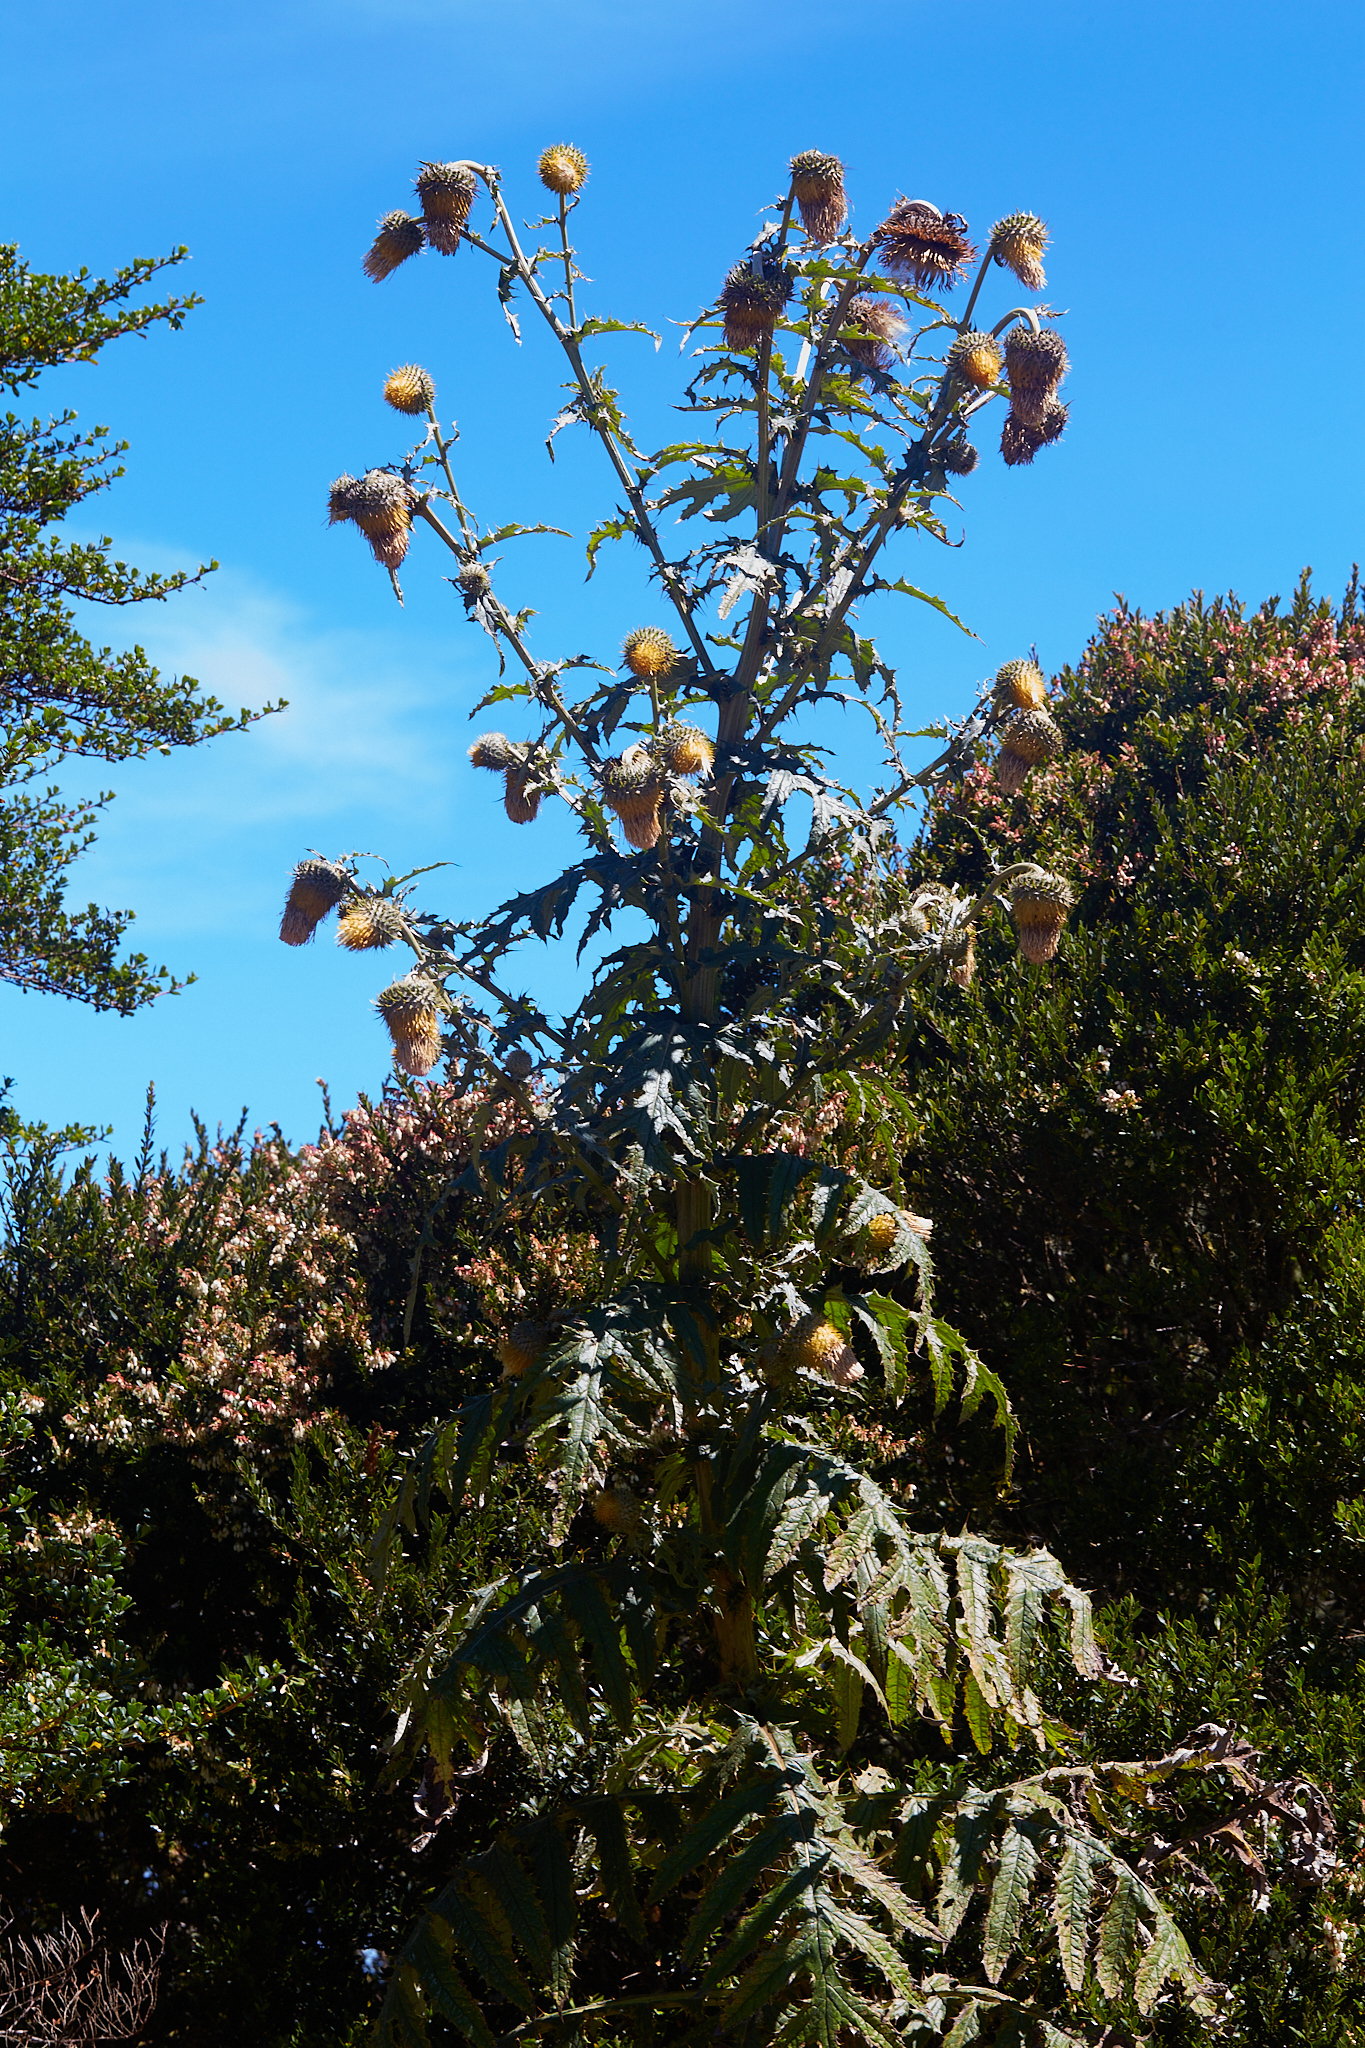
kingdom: Plantae
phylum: Tracheophyta
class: Magnoliopsida
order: Asterales
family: Asteraceae
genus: Cirsium
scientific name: Cirsium subcoriaceum
